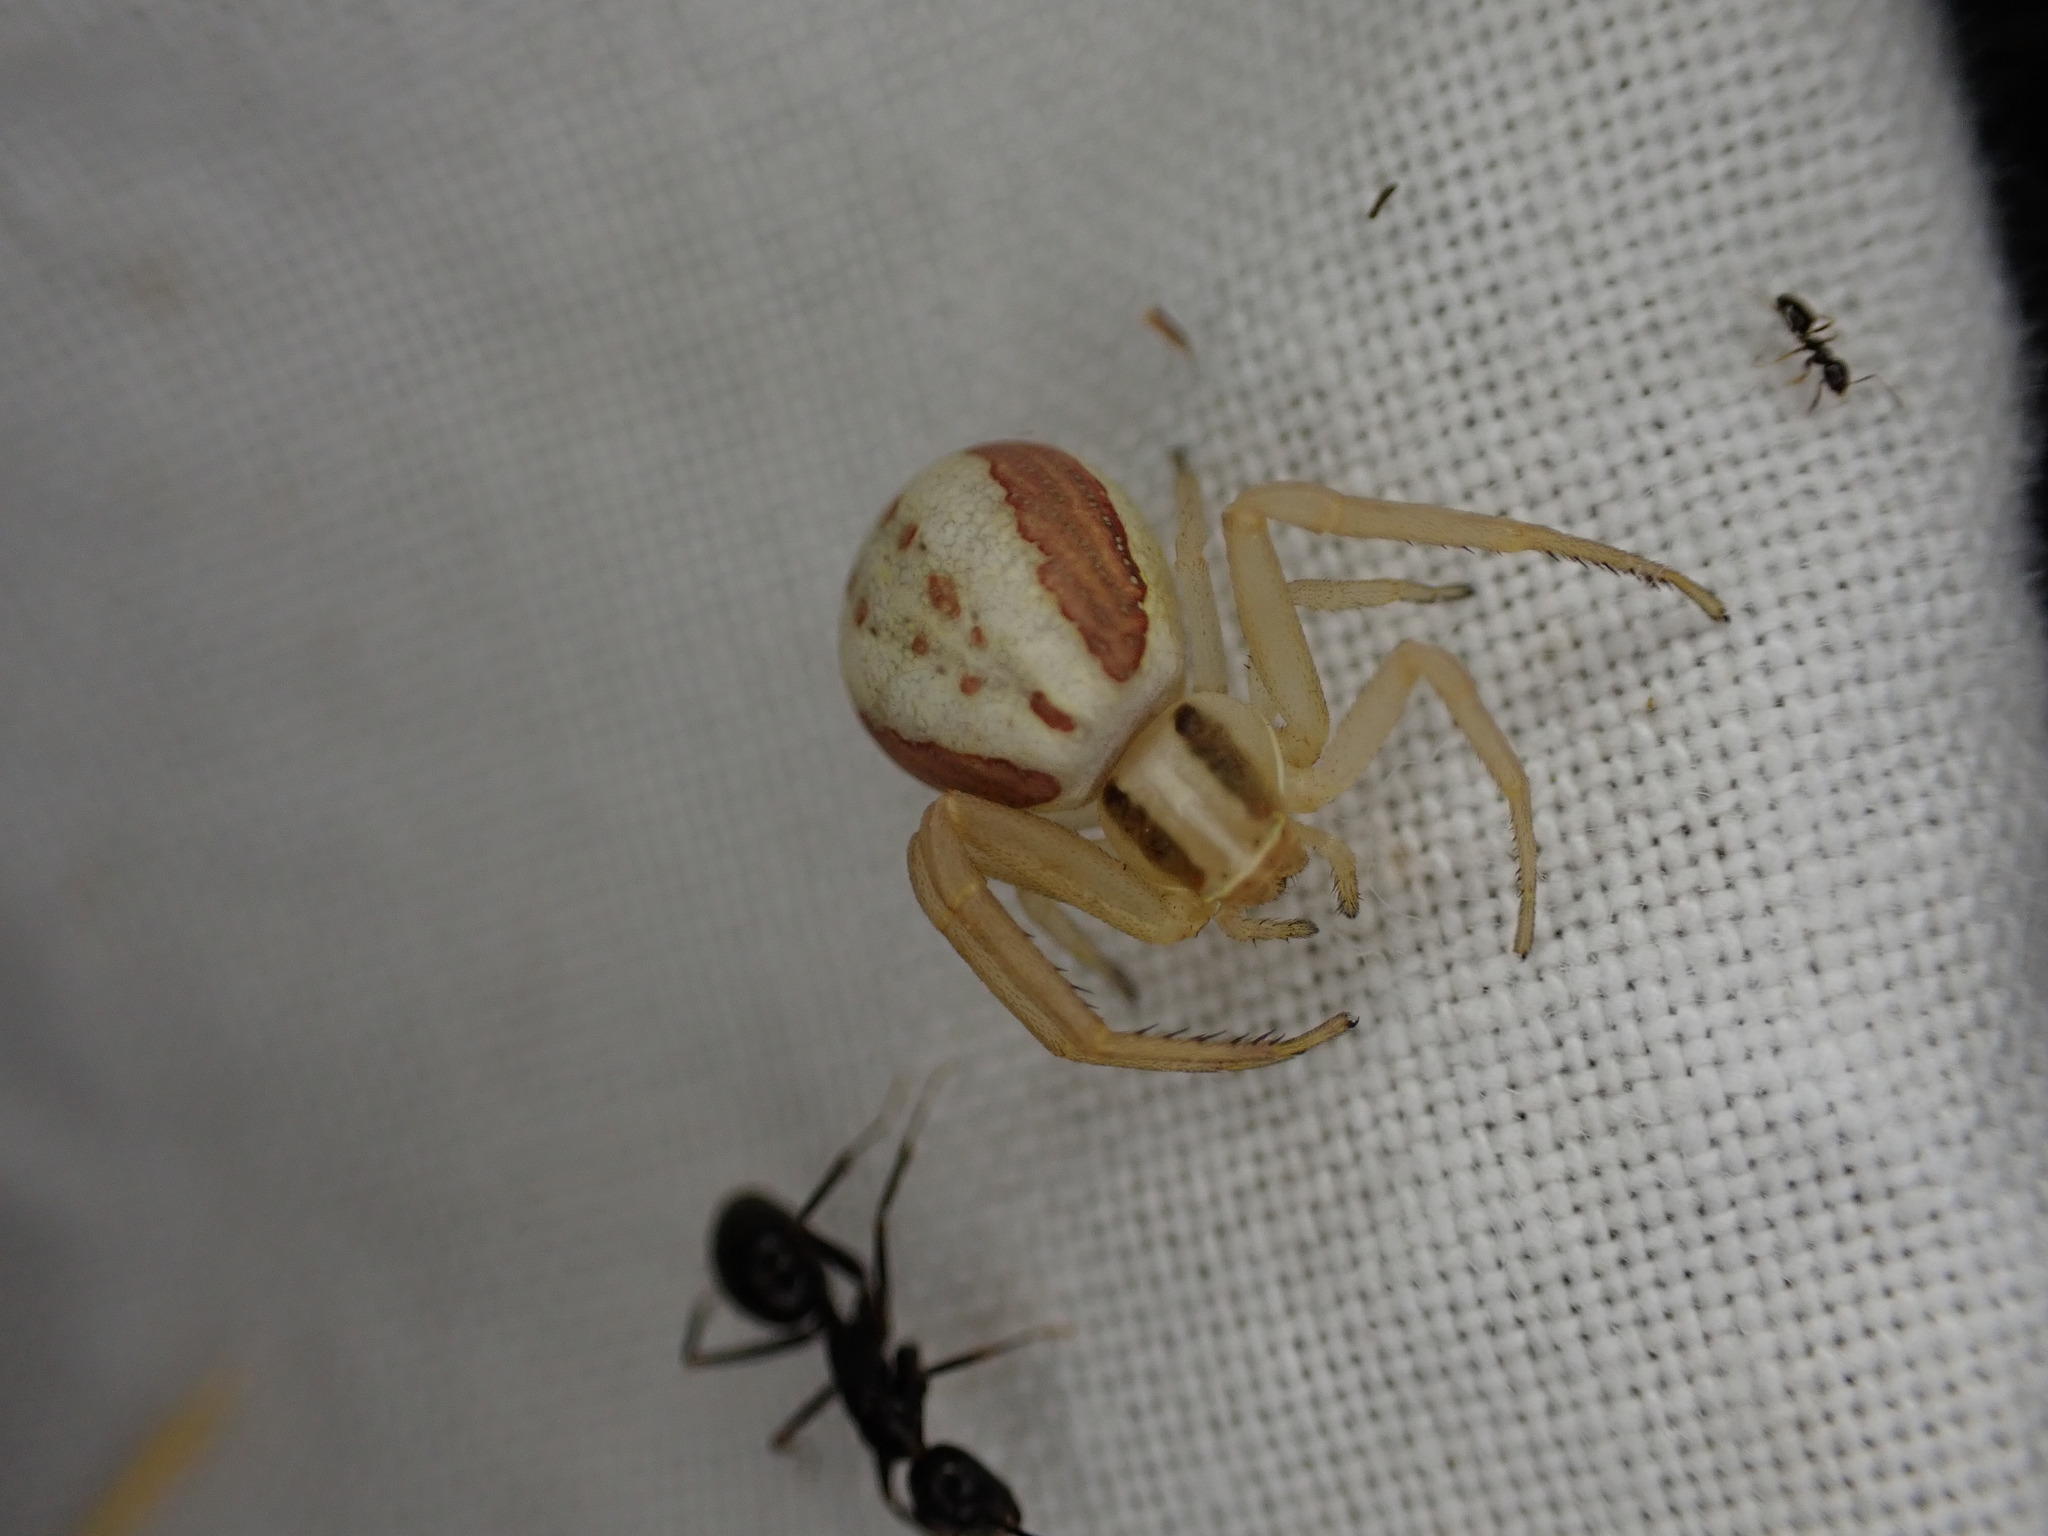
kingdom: Animalia
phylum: Arthropoda
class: Arachnida
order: Araneae
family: Thomisidae
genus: Runcinia
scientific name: Runcinia grammica
